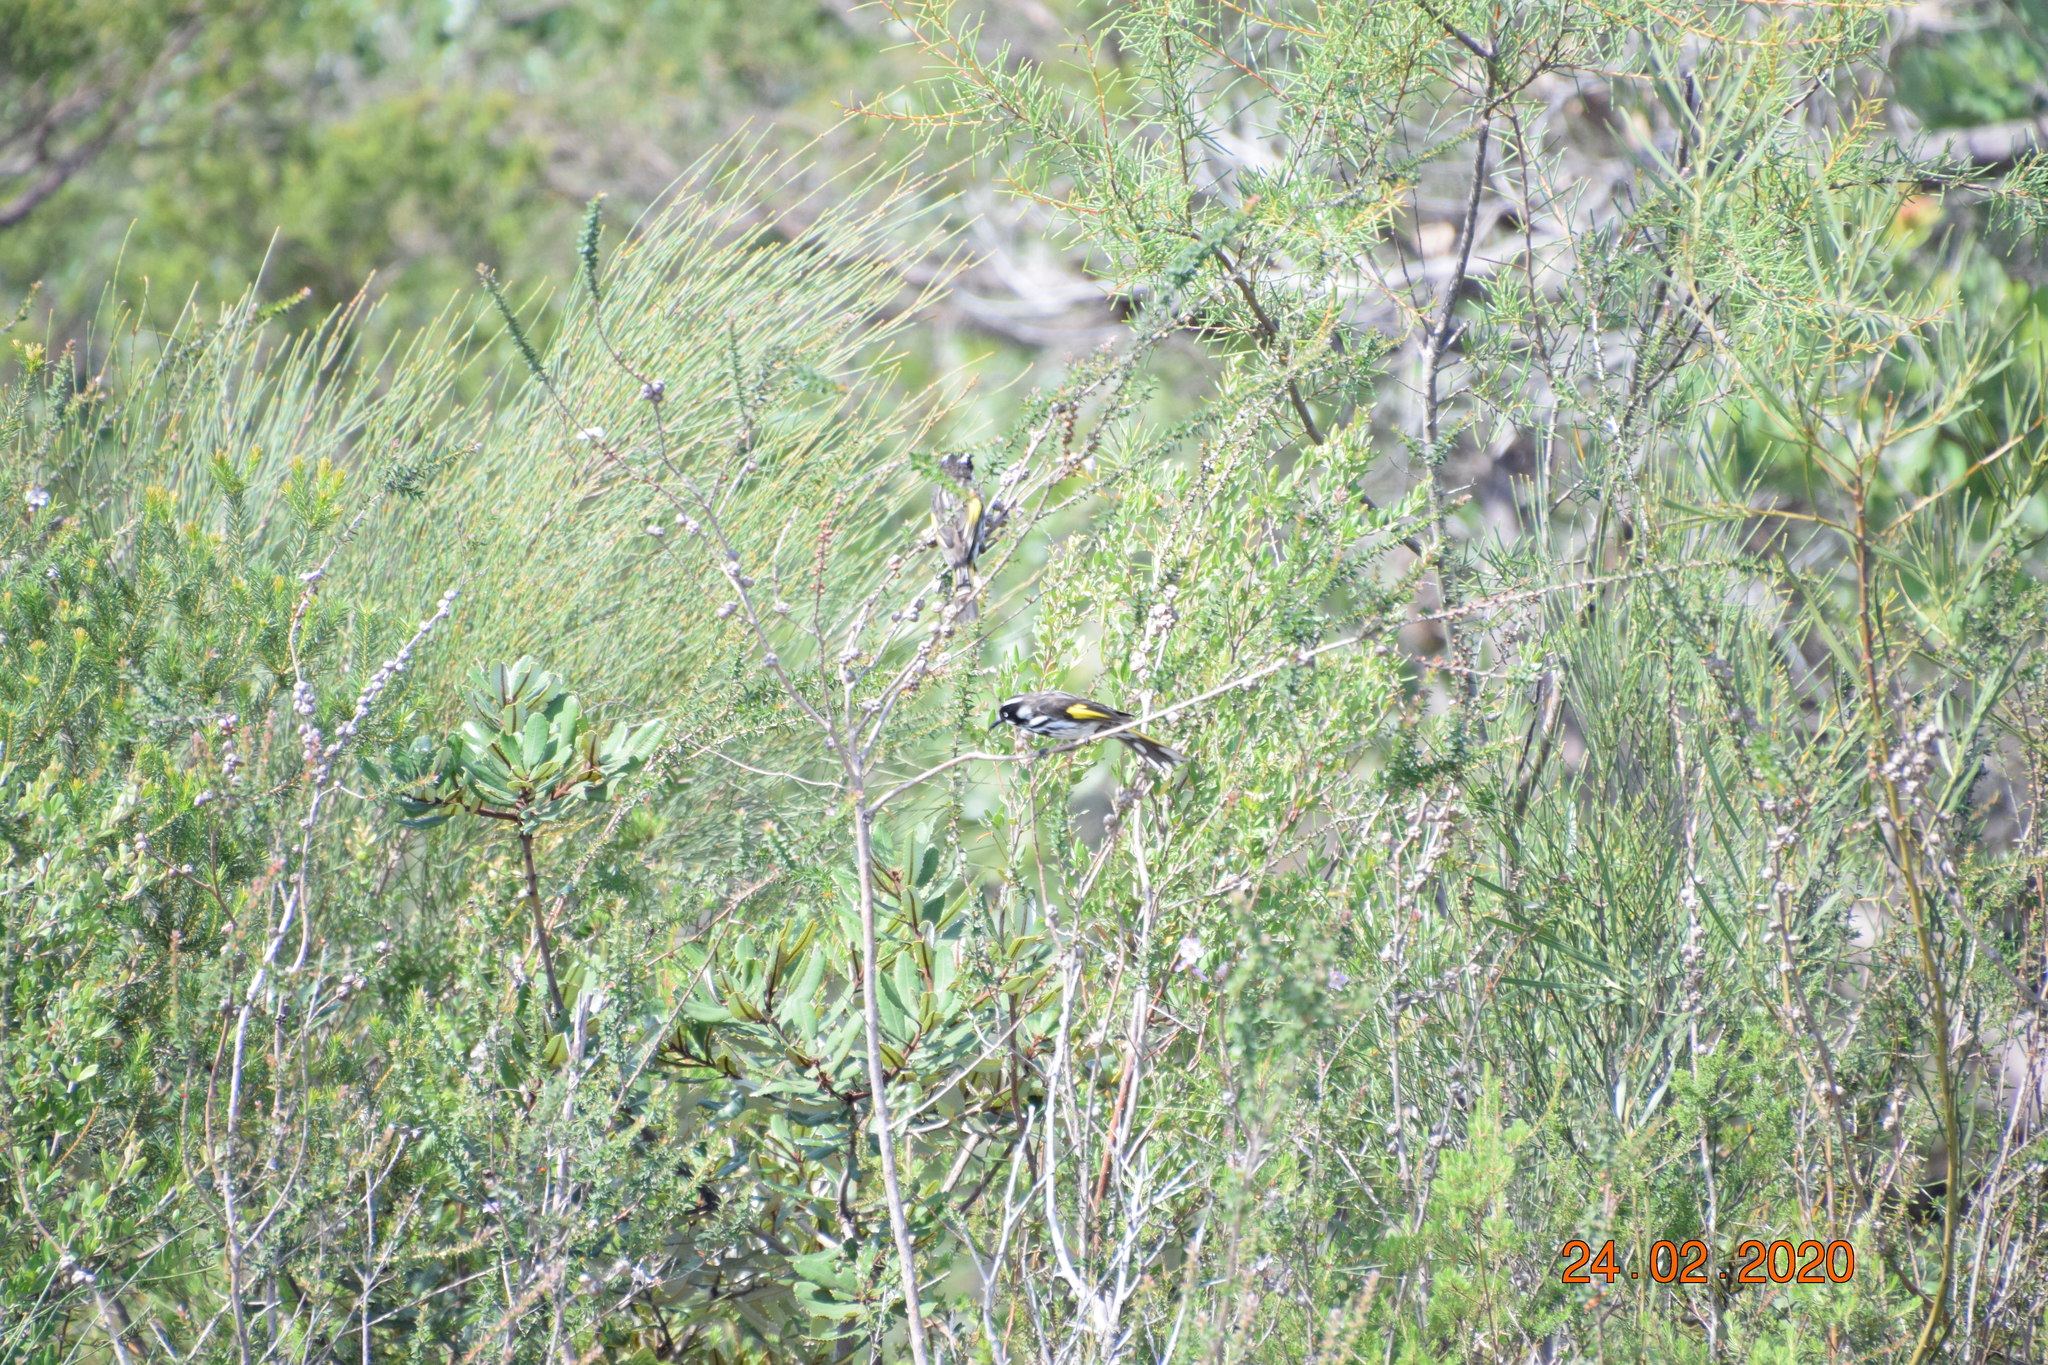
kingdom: Animalia
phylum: Chordata
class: Aves
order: Passeriformes
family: Meliphagidae
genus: Phylidonyris
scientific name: Phylidonyris novaehollandiae
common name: New holland honeyeater
